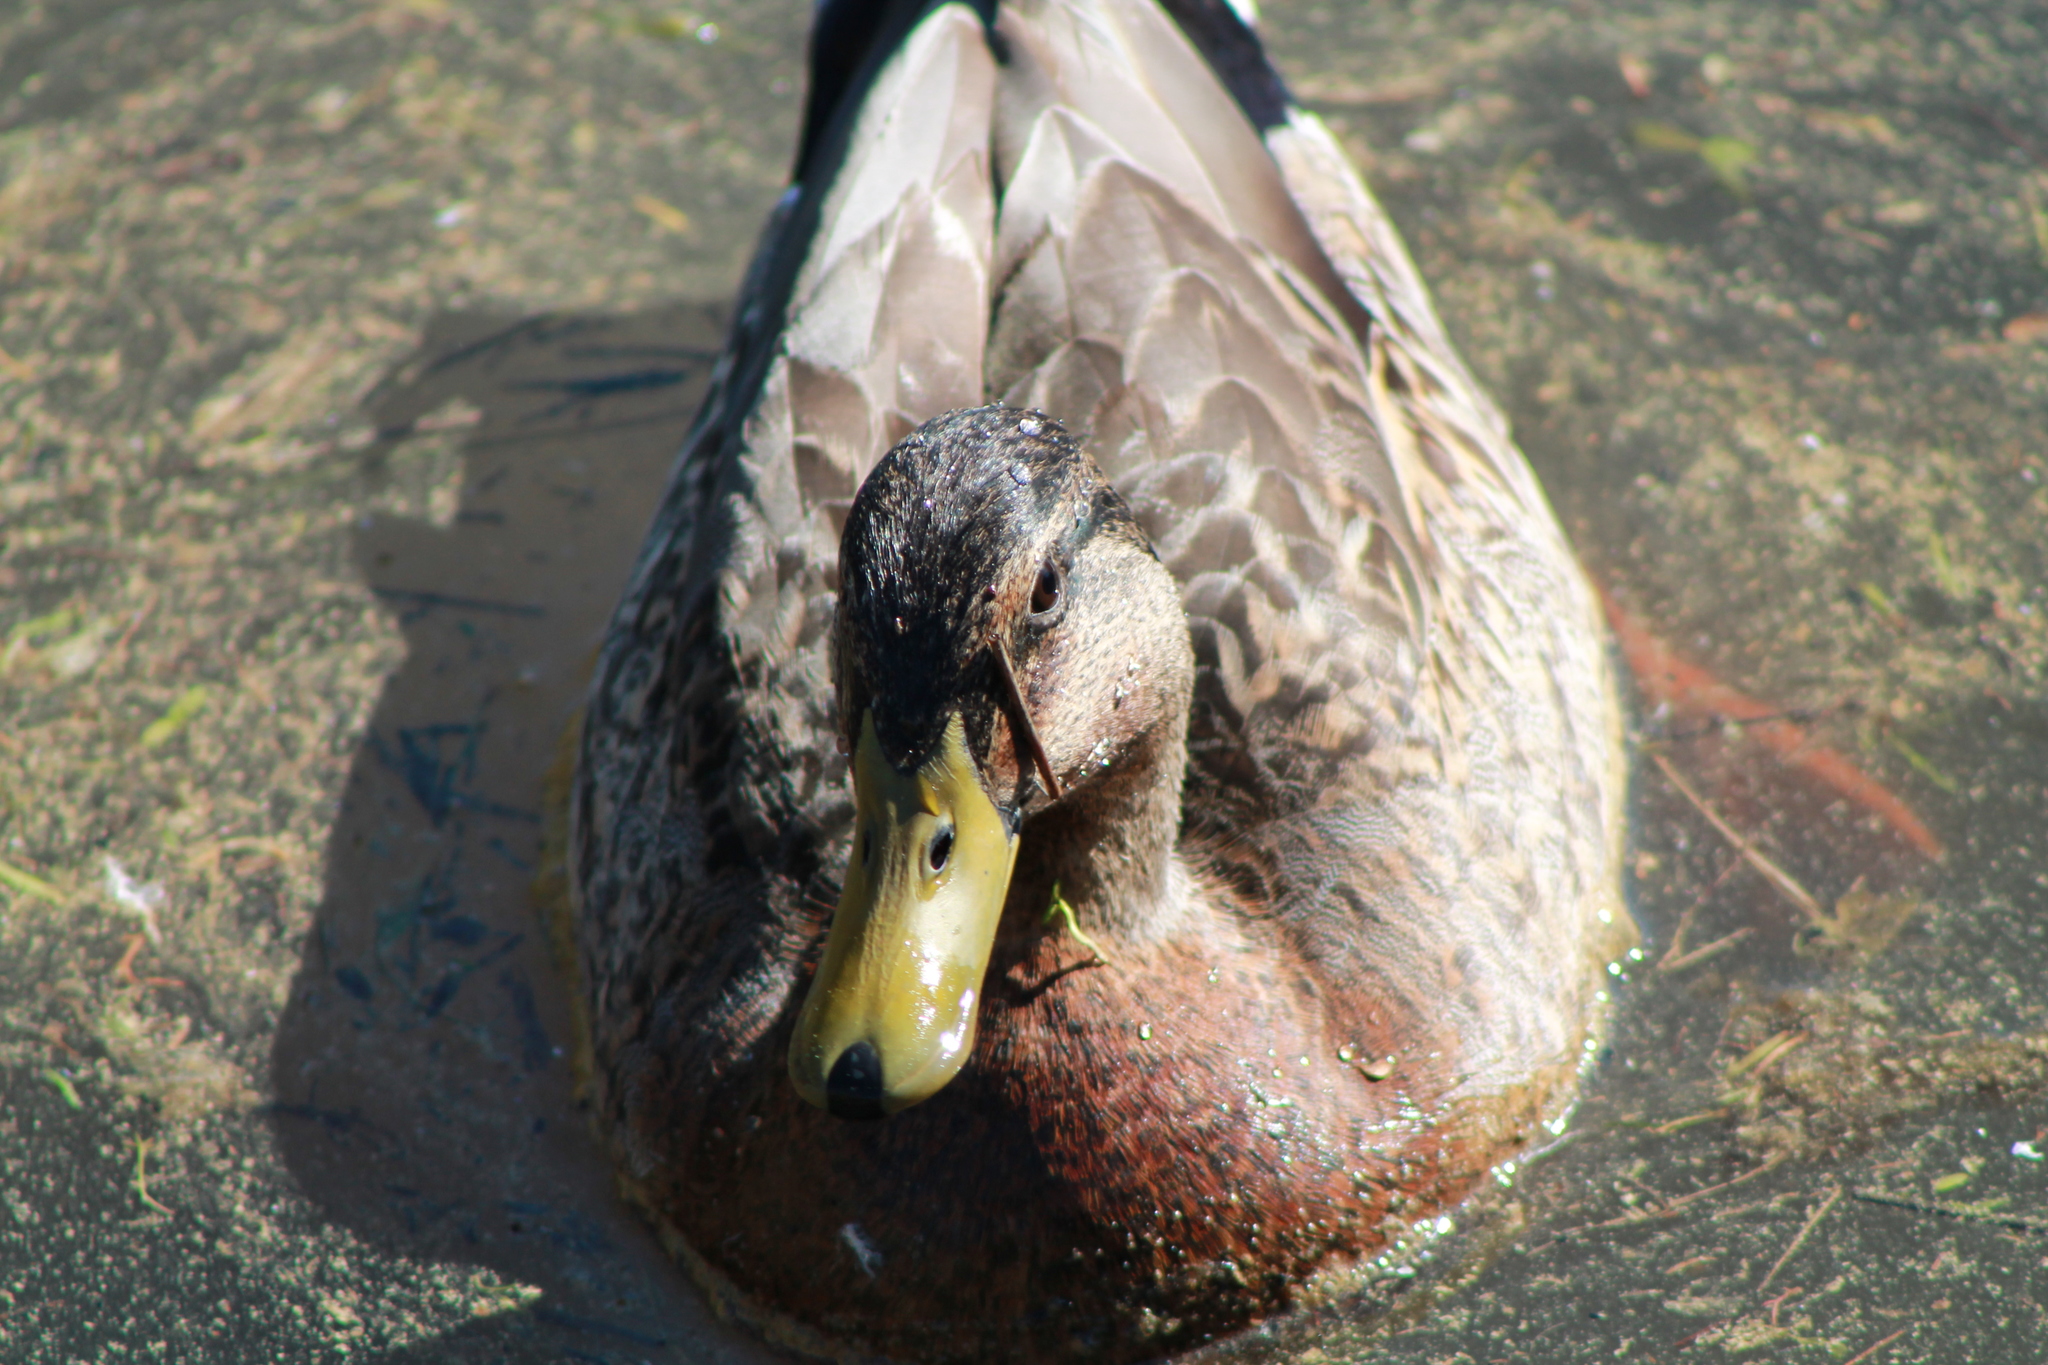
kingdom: Animalia
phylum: Chordata
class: Aves
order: Anseriformes
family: Anatidae
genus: Anas
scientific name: Anas platyrhynchos
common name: Mallard
